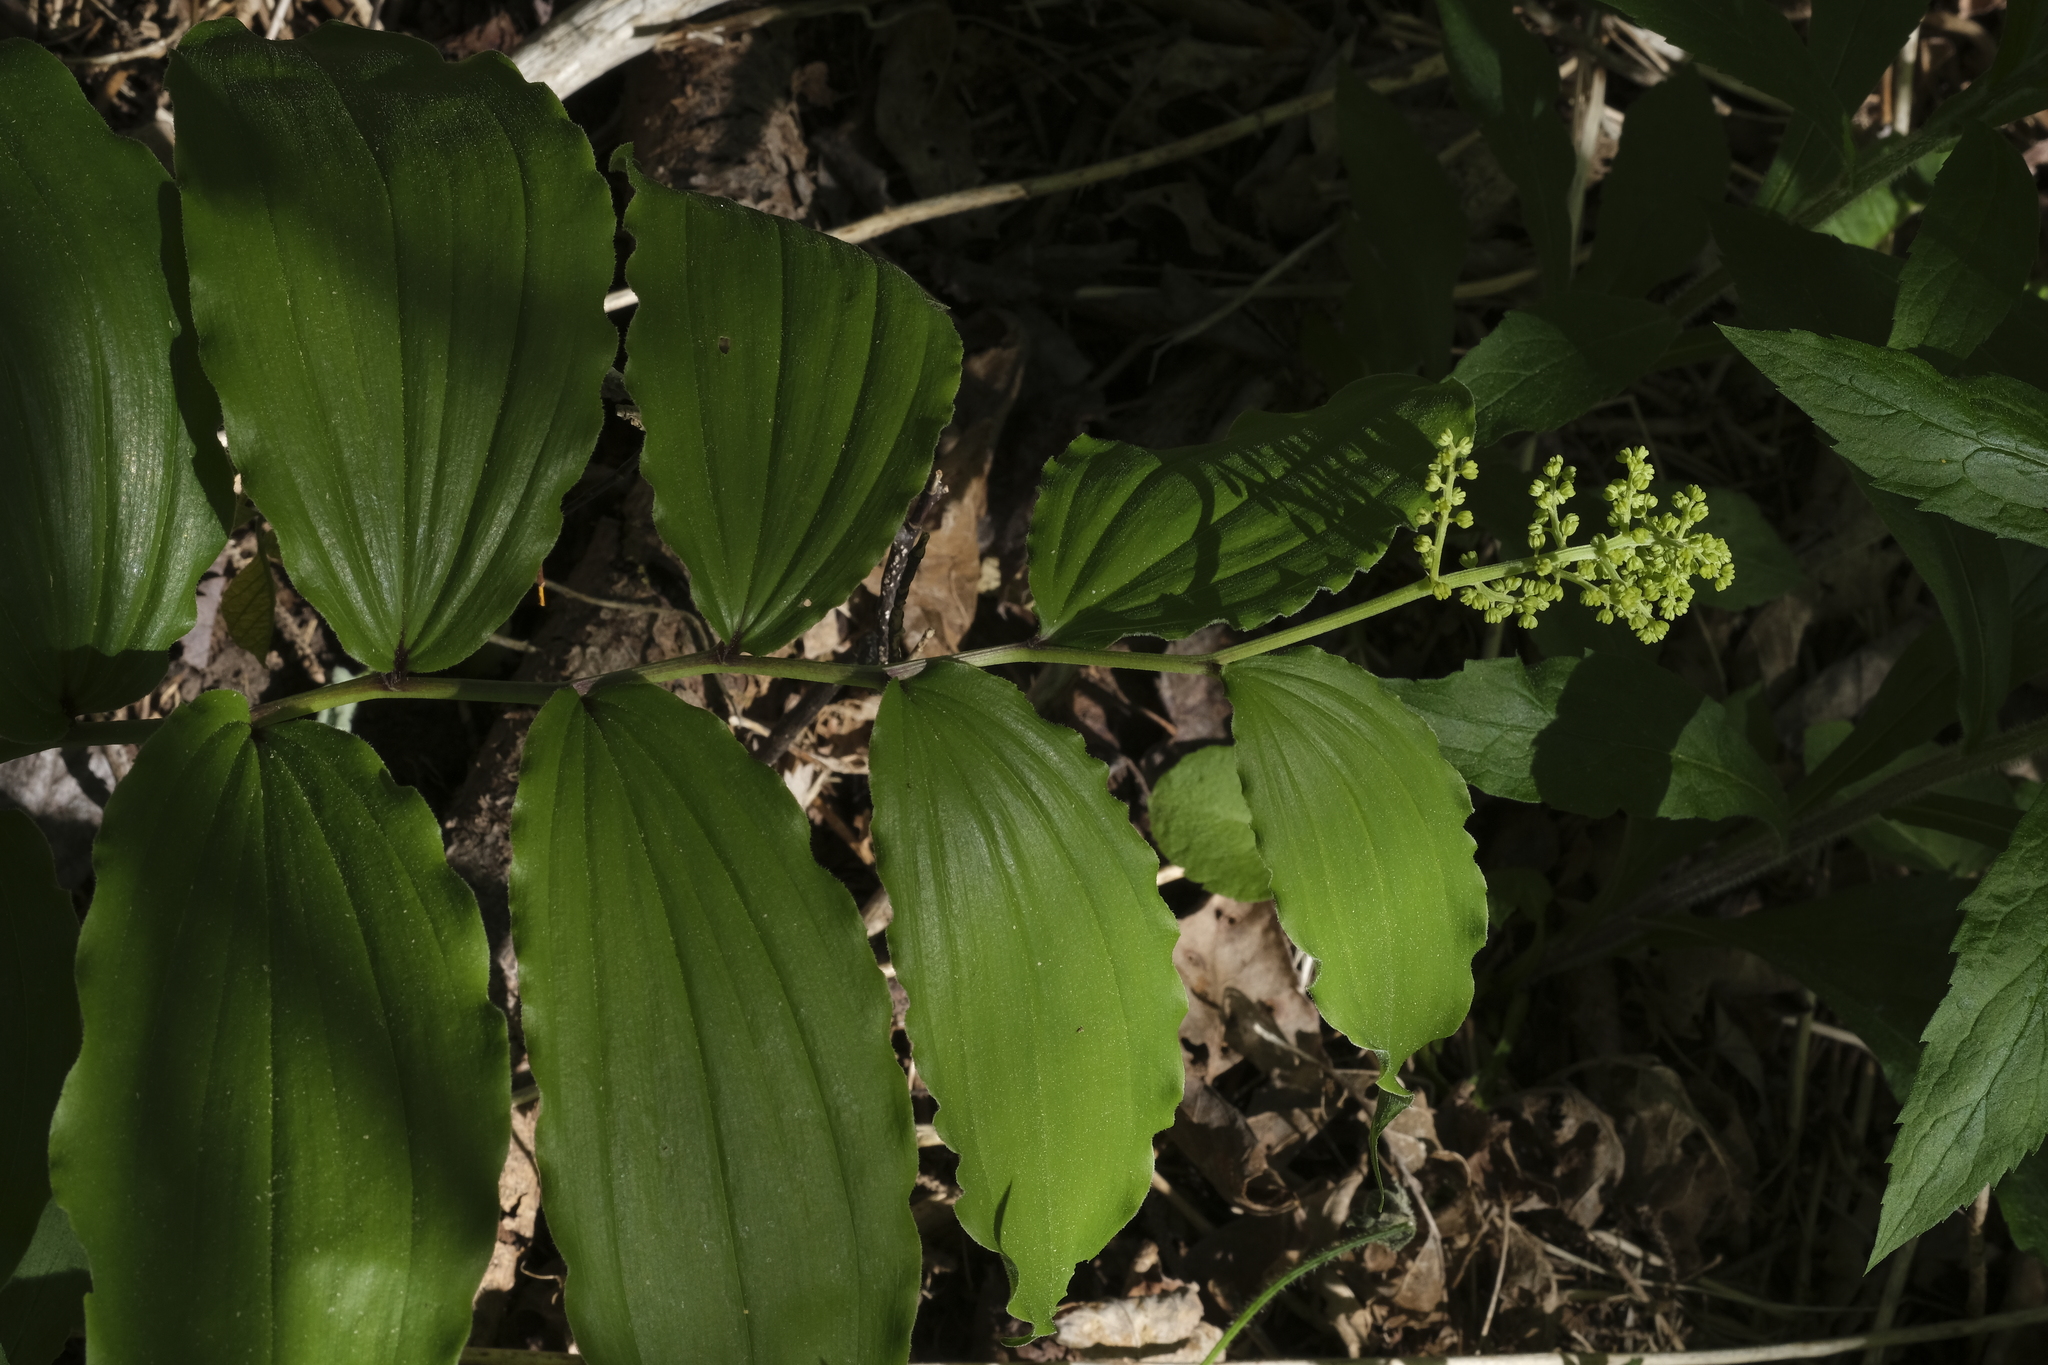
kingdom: Plantae
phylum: Tracheophyta
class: Liliopsida
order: Asparagales
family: Asparagaceae
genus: Maianthemum
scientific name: Maianthemum racemosum
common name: False spikenard
